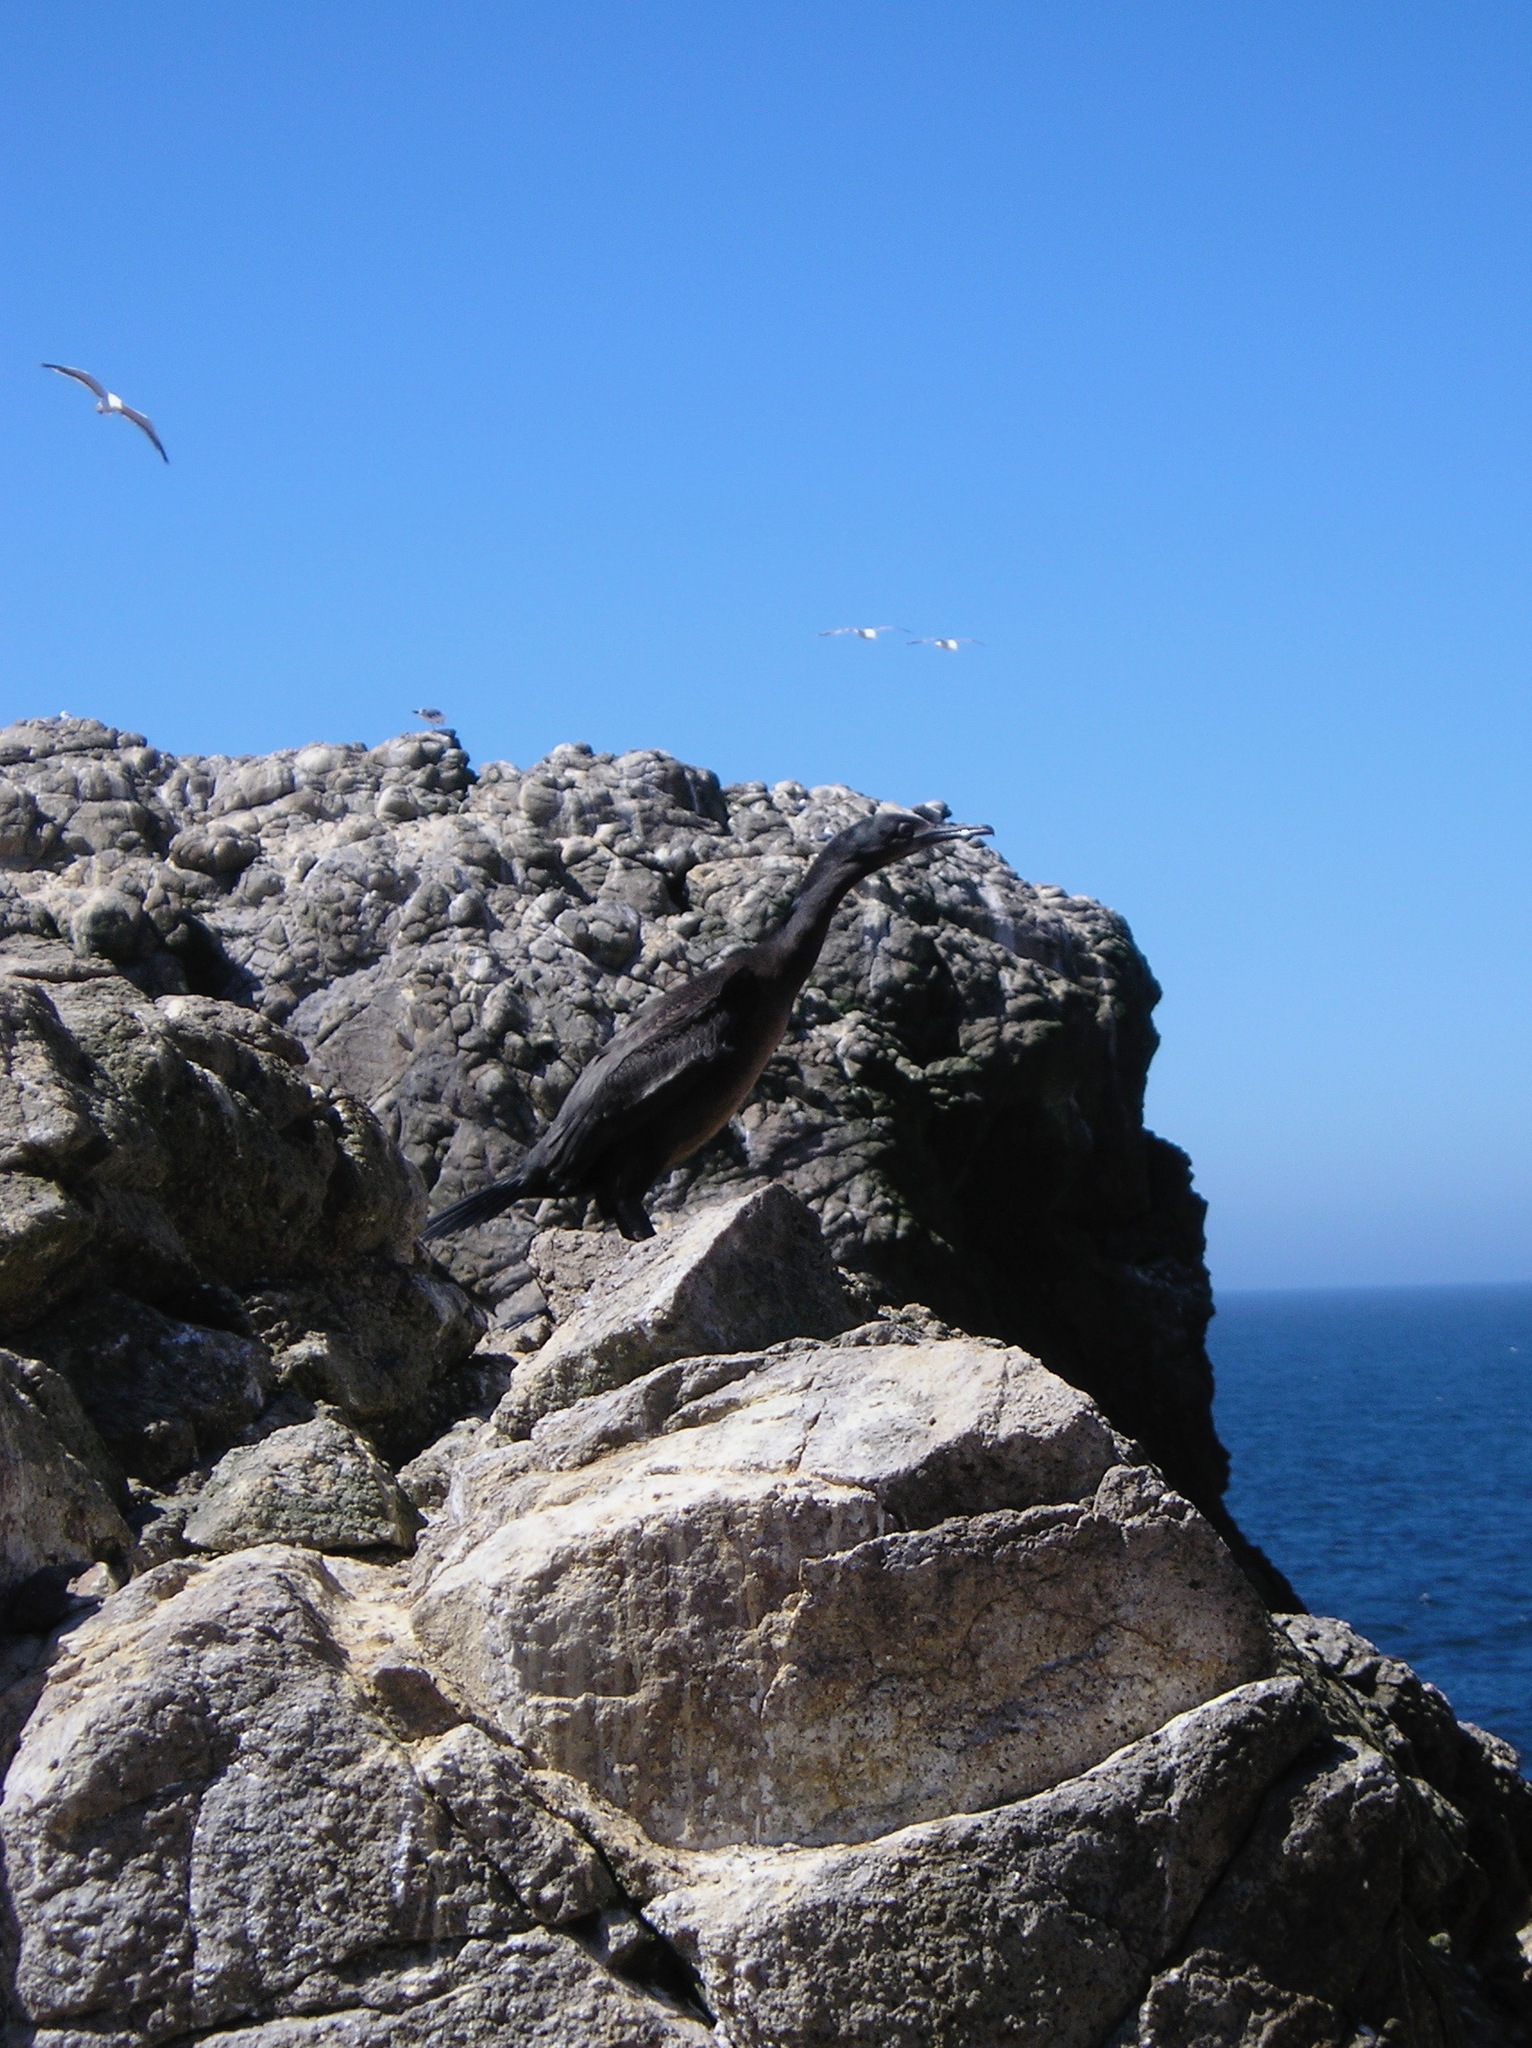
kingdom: Animalia
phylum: Chordata
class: Aves
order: Suliformes
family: Phalacrocoracidae
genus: Urile
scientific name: Urile penicillatus
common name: Brandt's cormorant
